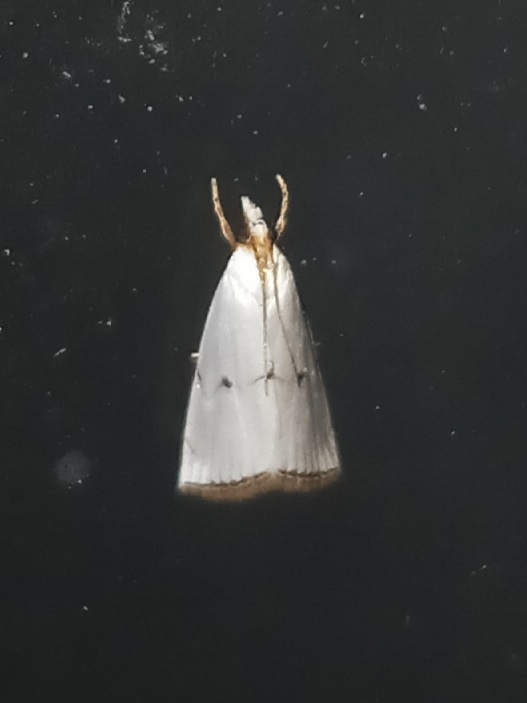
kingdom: Animalia
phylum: Arthropoda
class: Insecta
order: Lepidoptera
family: Crambidae
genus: Argyria
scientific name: Argyria pusillalis
